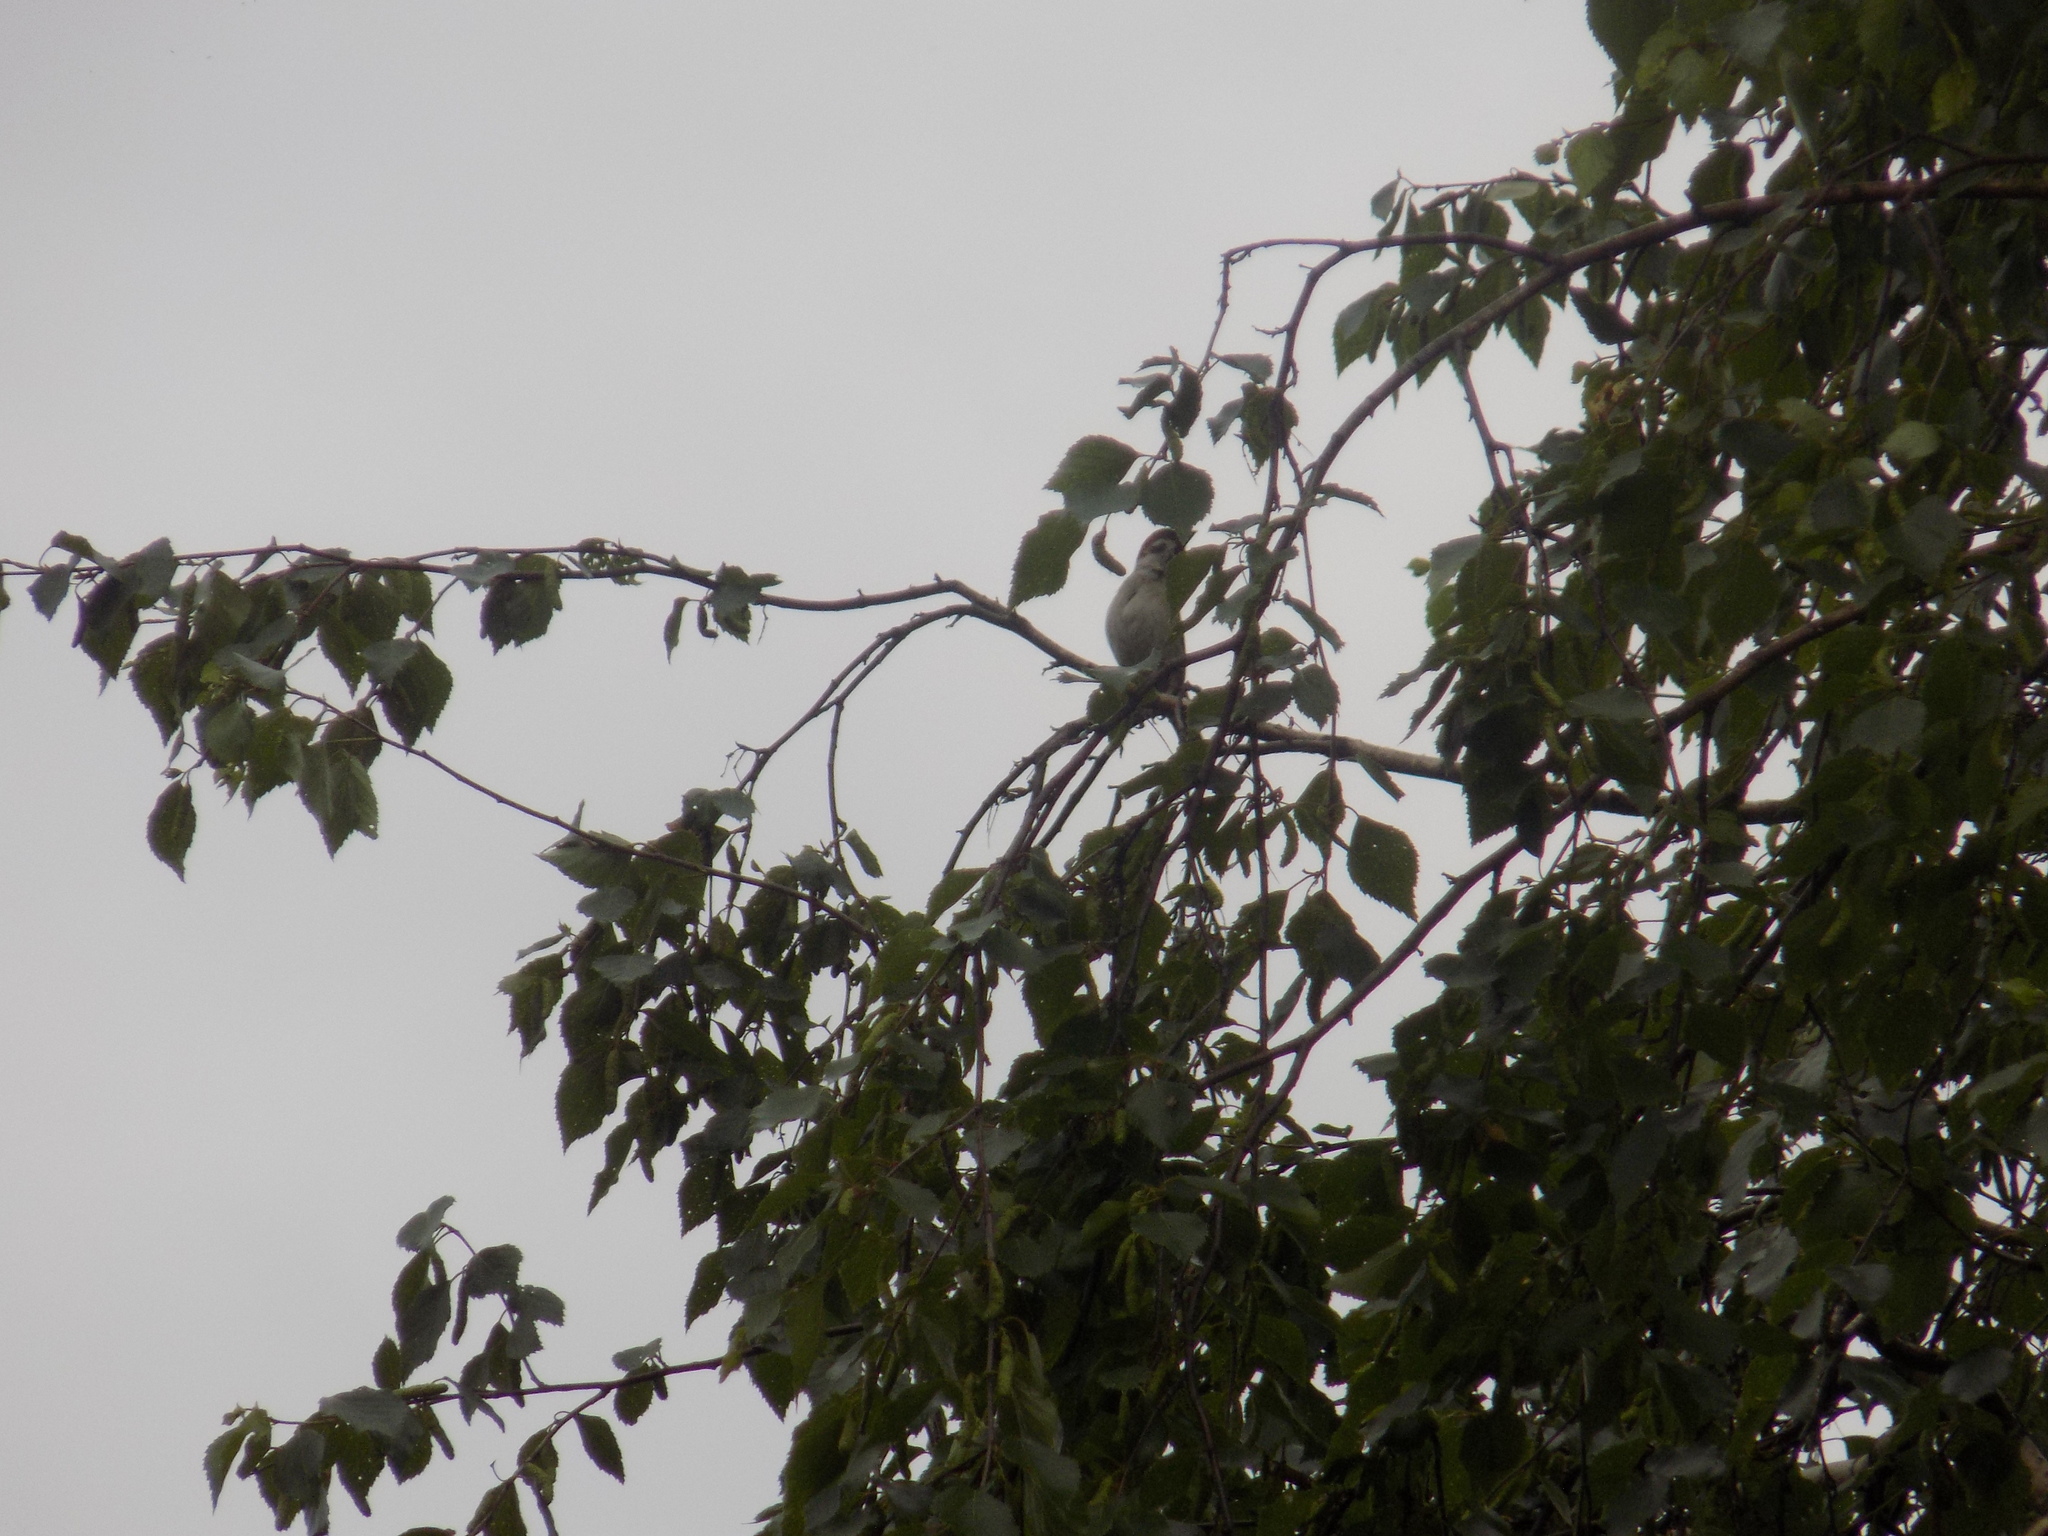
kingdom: Animalia
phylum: Chordata
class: Aves
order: Passeriformes
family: Passeridae
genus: Passer
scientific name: Passer montanus
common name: Eurasian tree sparrow
